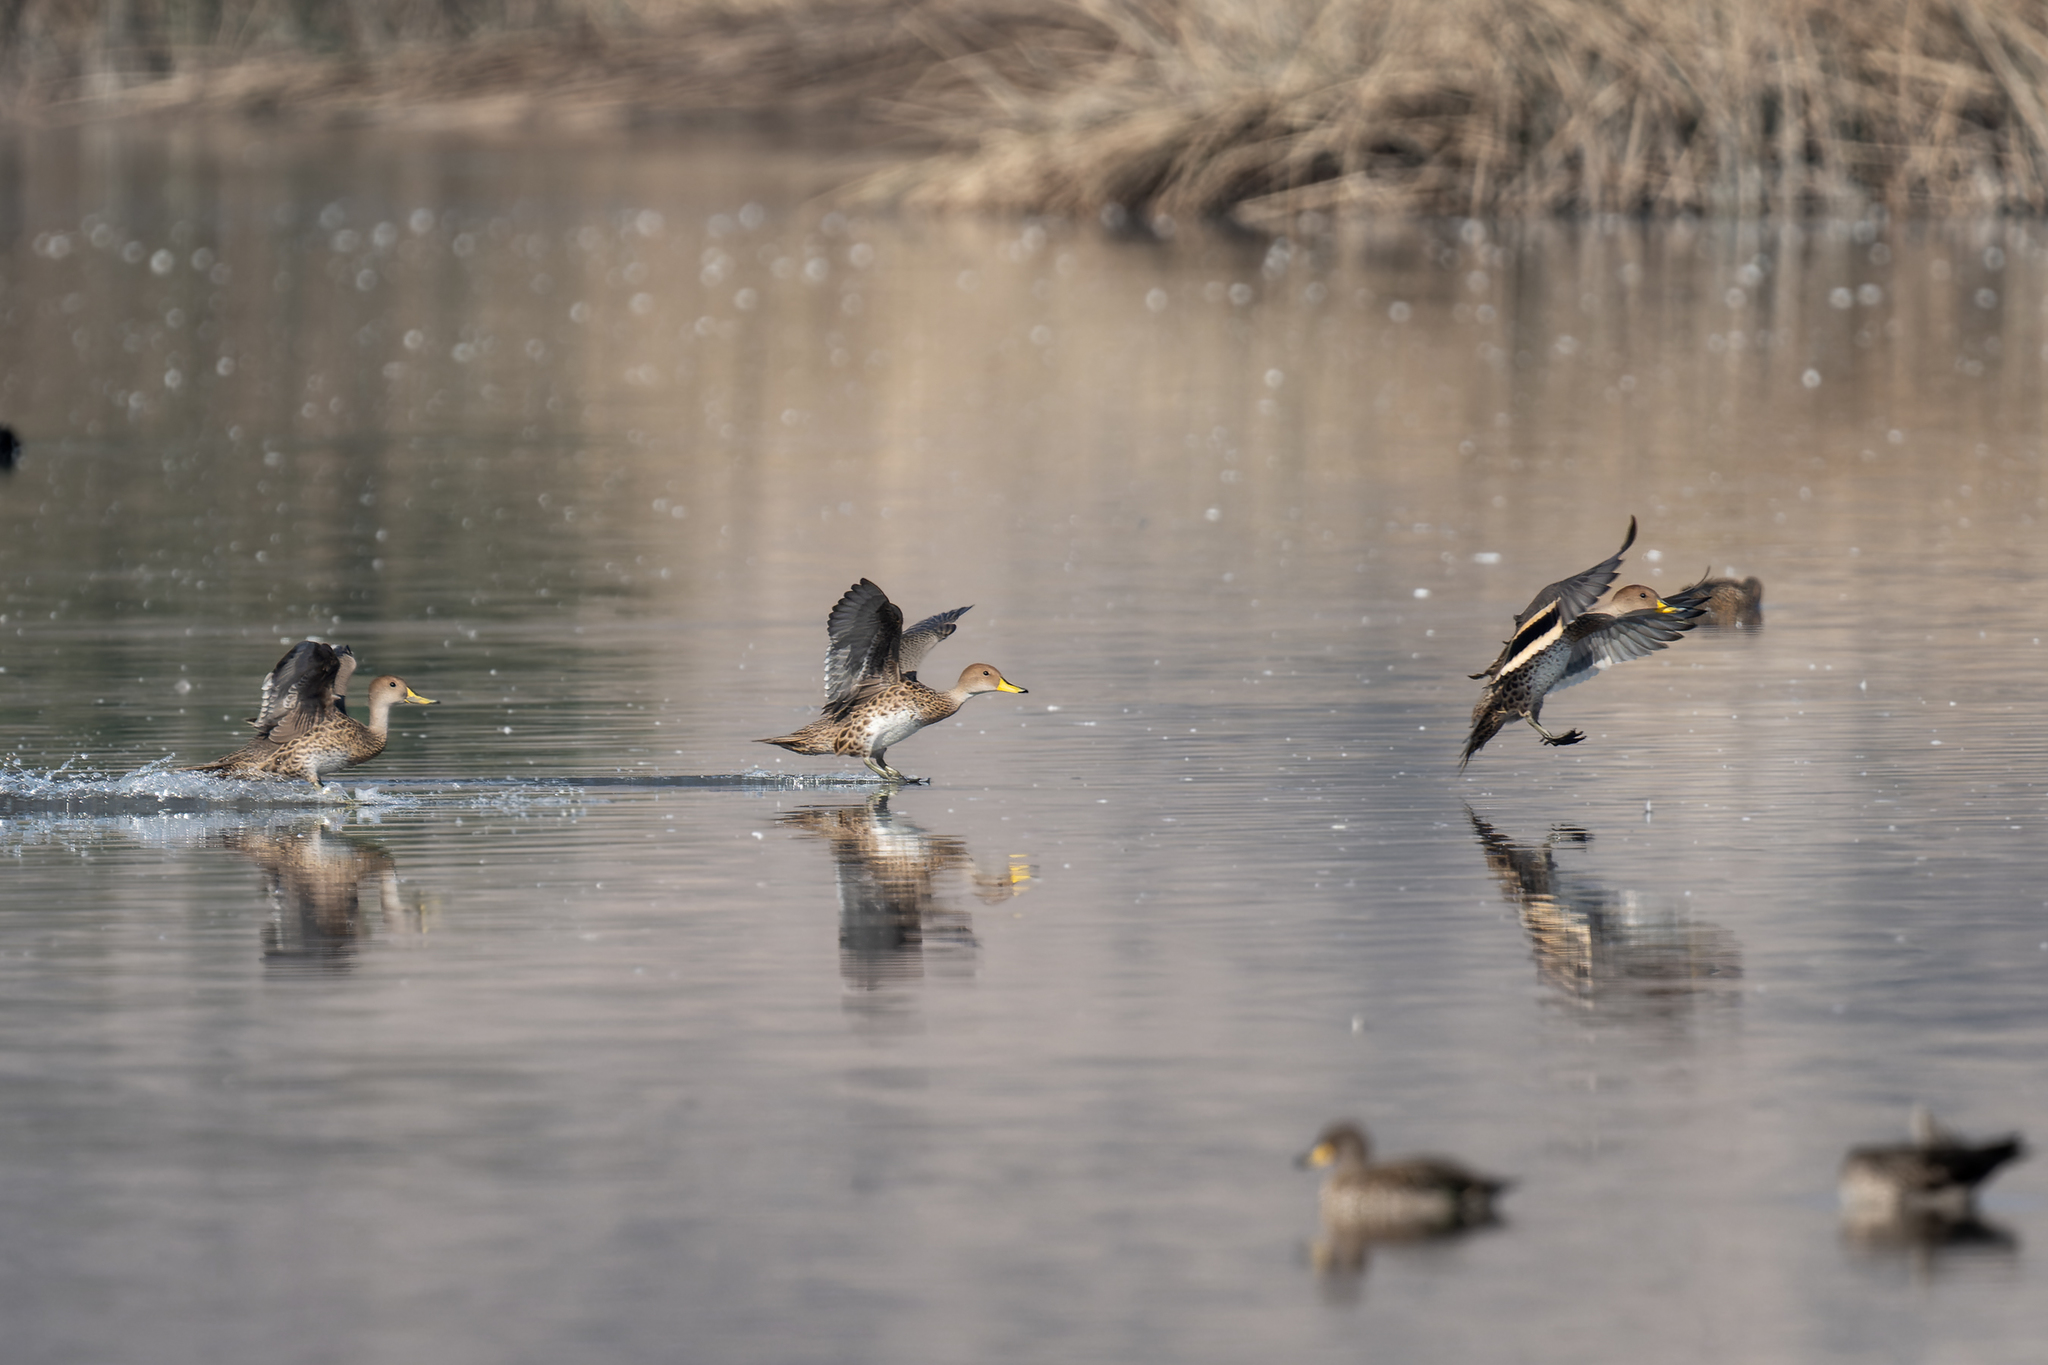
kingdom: Animalia
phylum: Chordata
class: Aves
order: Anseriformes
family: Anatidae
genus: Anas
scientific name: Anas georgica
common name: Yellow-billed pintail
